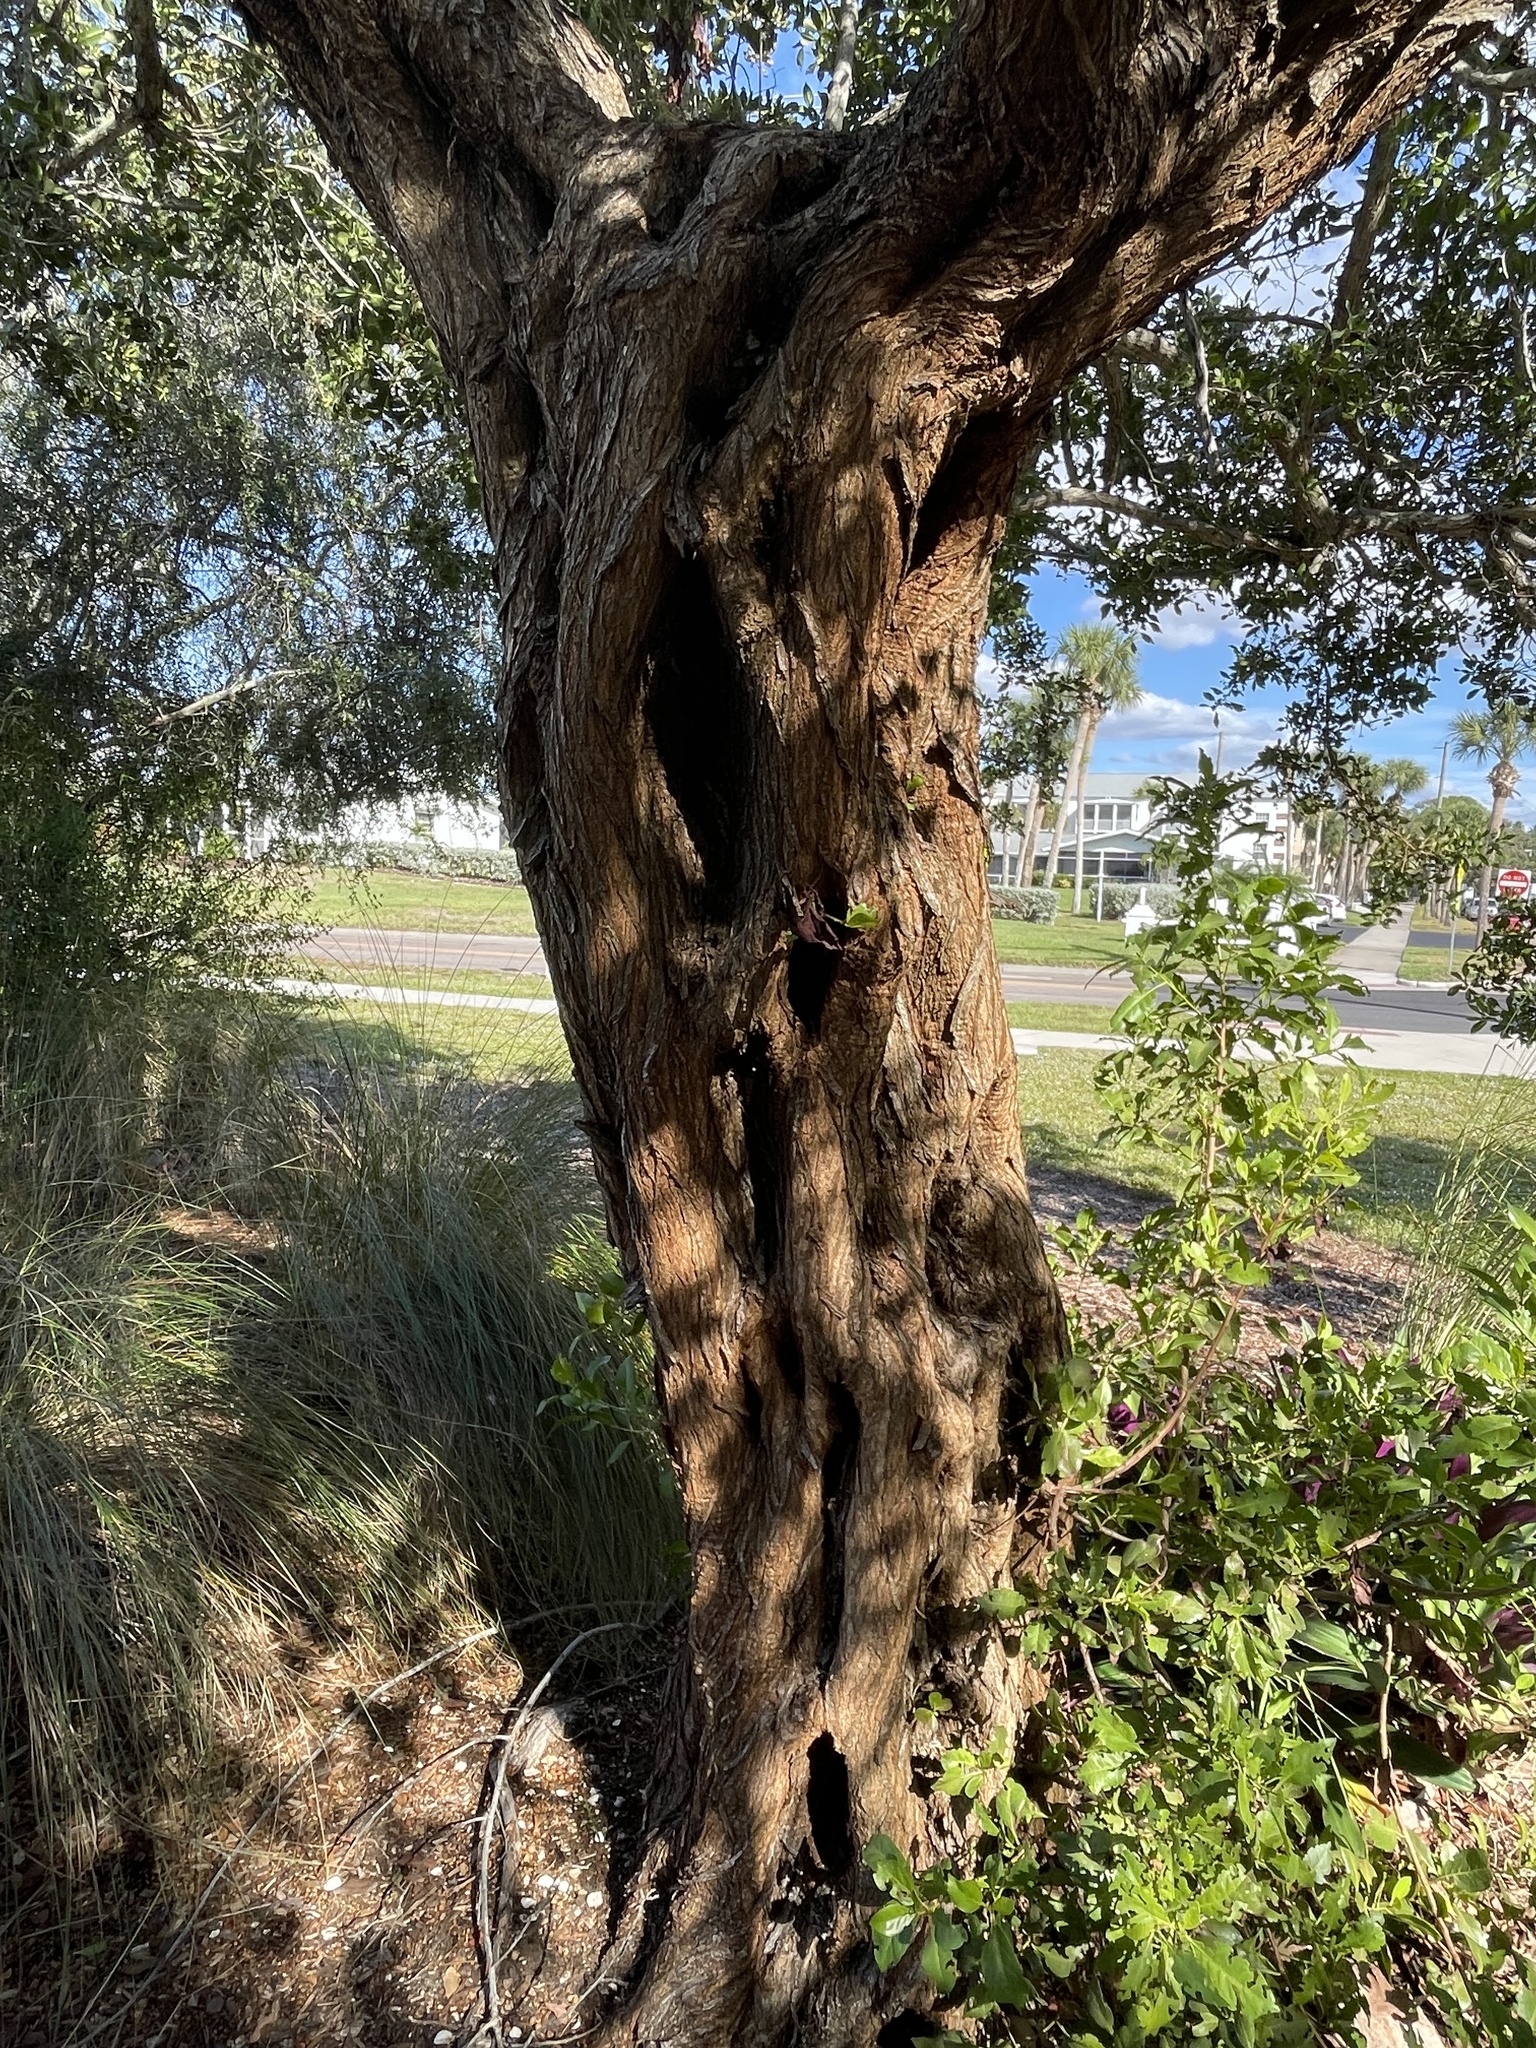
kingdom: Plantae
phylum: Tracheophyta
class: Magnoliopsida
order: Myrtales
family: Combretaceae
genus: Conocarpus
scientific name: Conocarpus erectus
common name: Button mangrove
